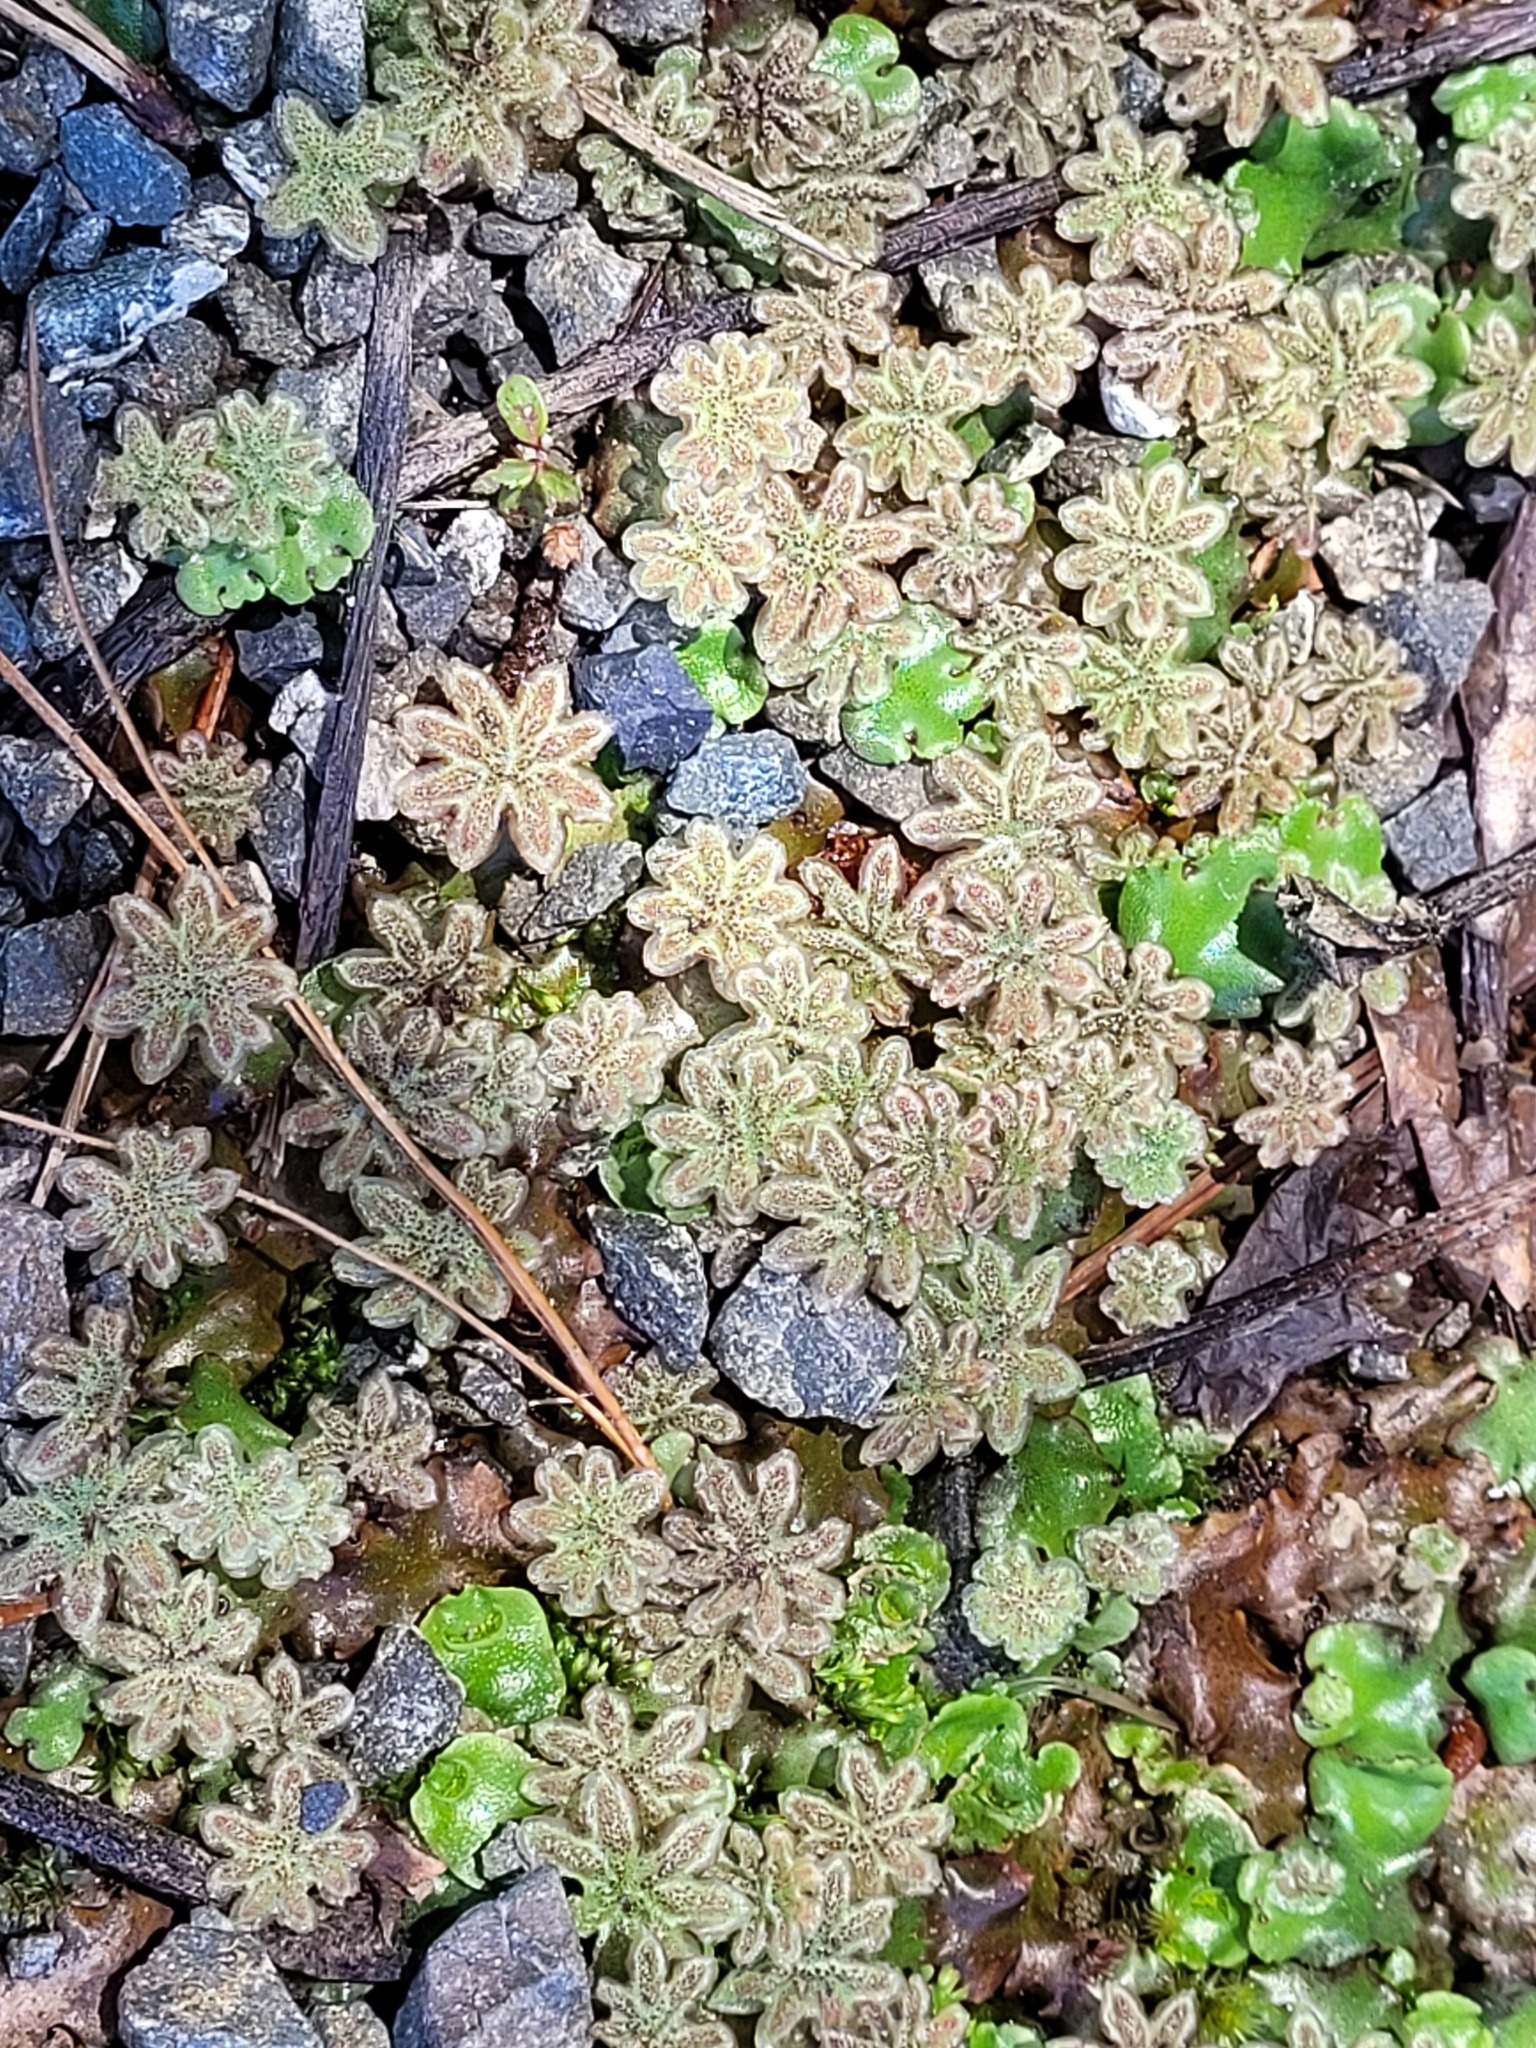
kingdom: Plantae
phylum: Marchantiophyta
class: Marchantiopsida
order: Marchantiales
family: Marchantiaceae
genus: Marchantia
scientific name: Marchantia berteroana
